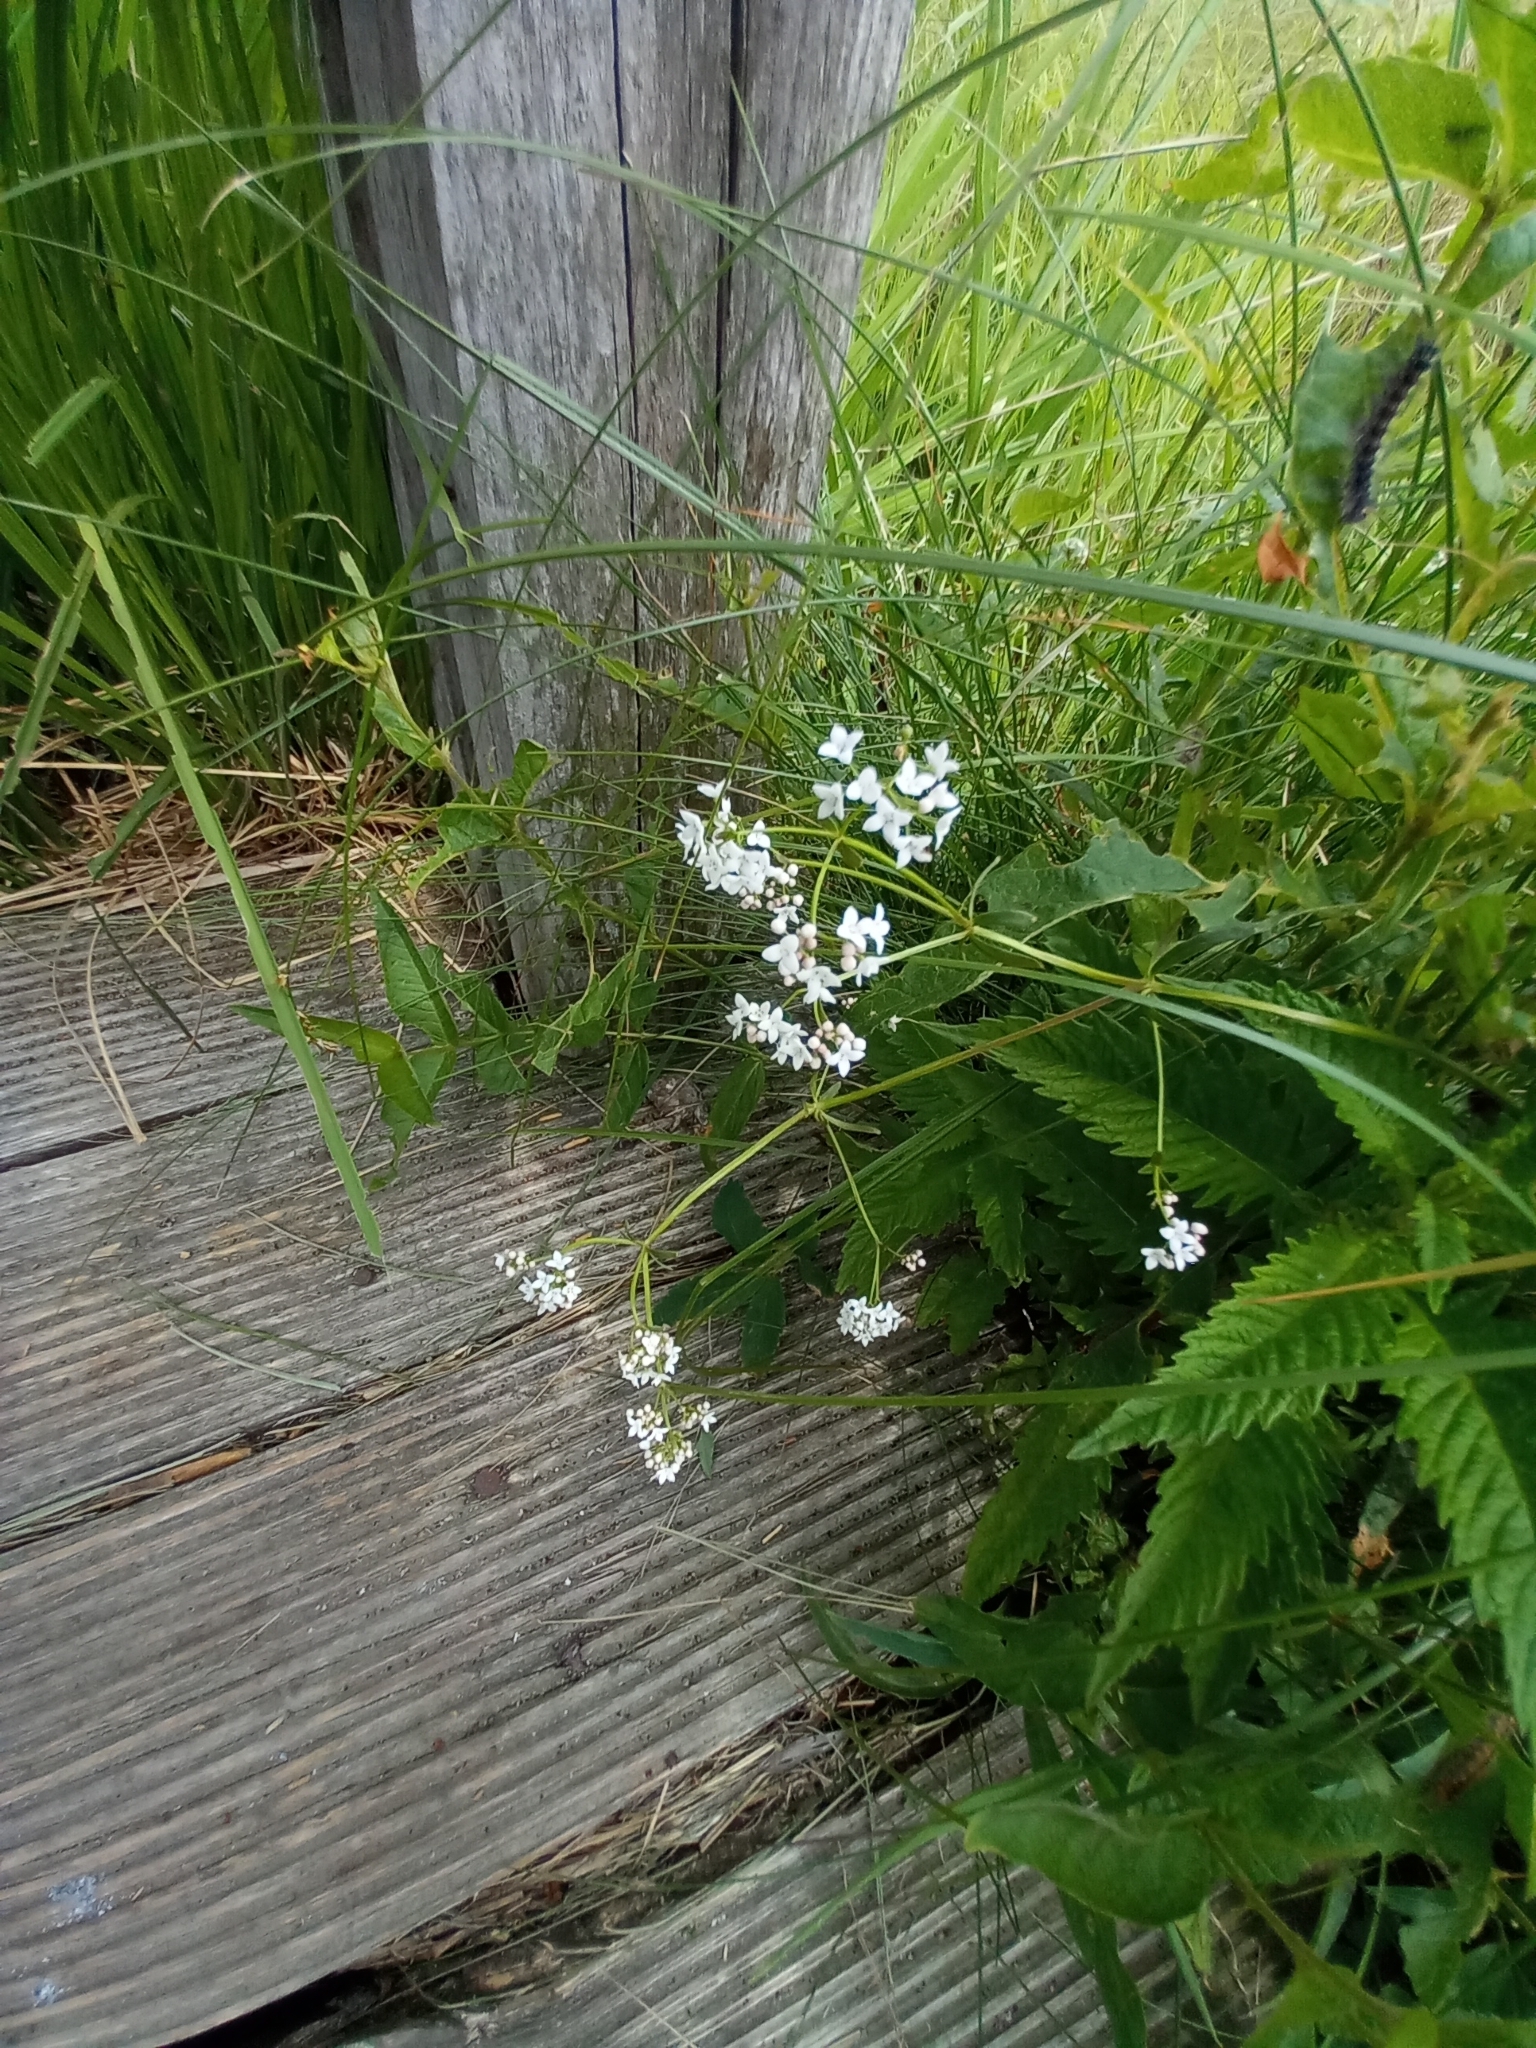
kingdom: Plantae
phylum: Tracheophyta
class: Magnoliopsida
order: Gentianales
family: Rubiaceae
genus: Galium
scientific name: Galium palustre
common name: Common marsh-bedstraw
